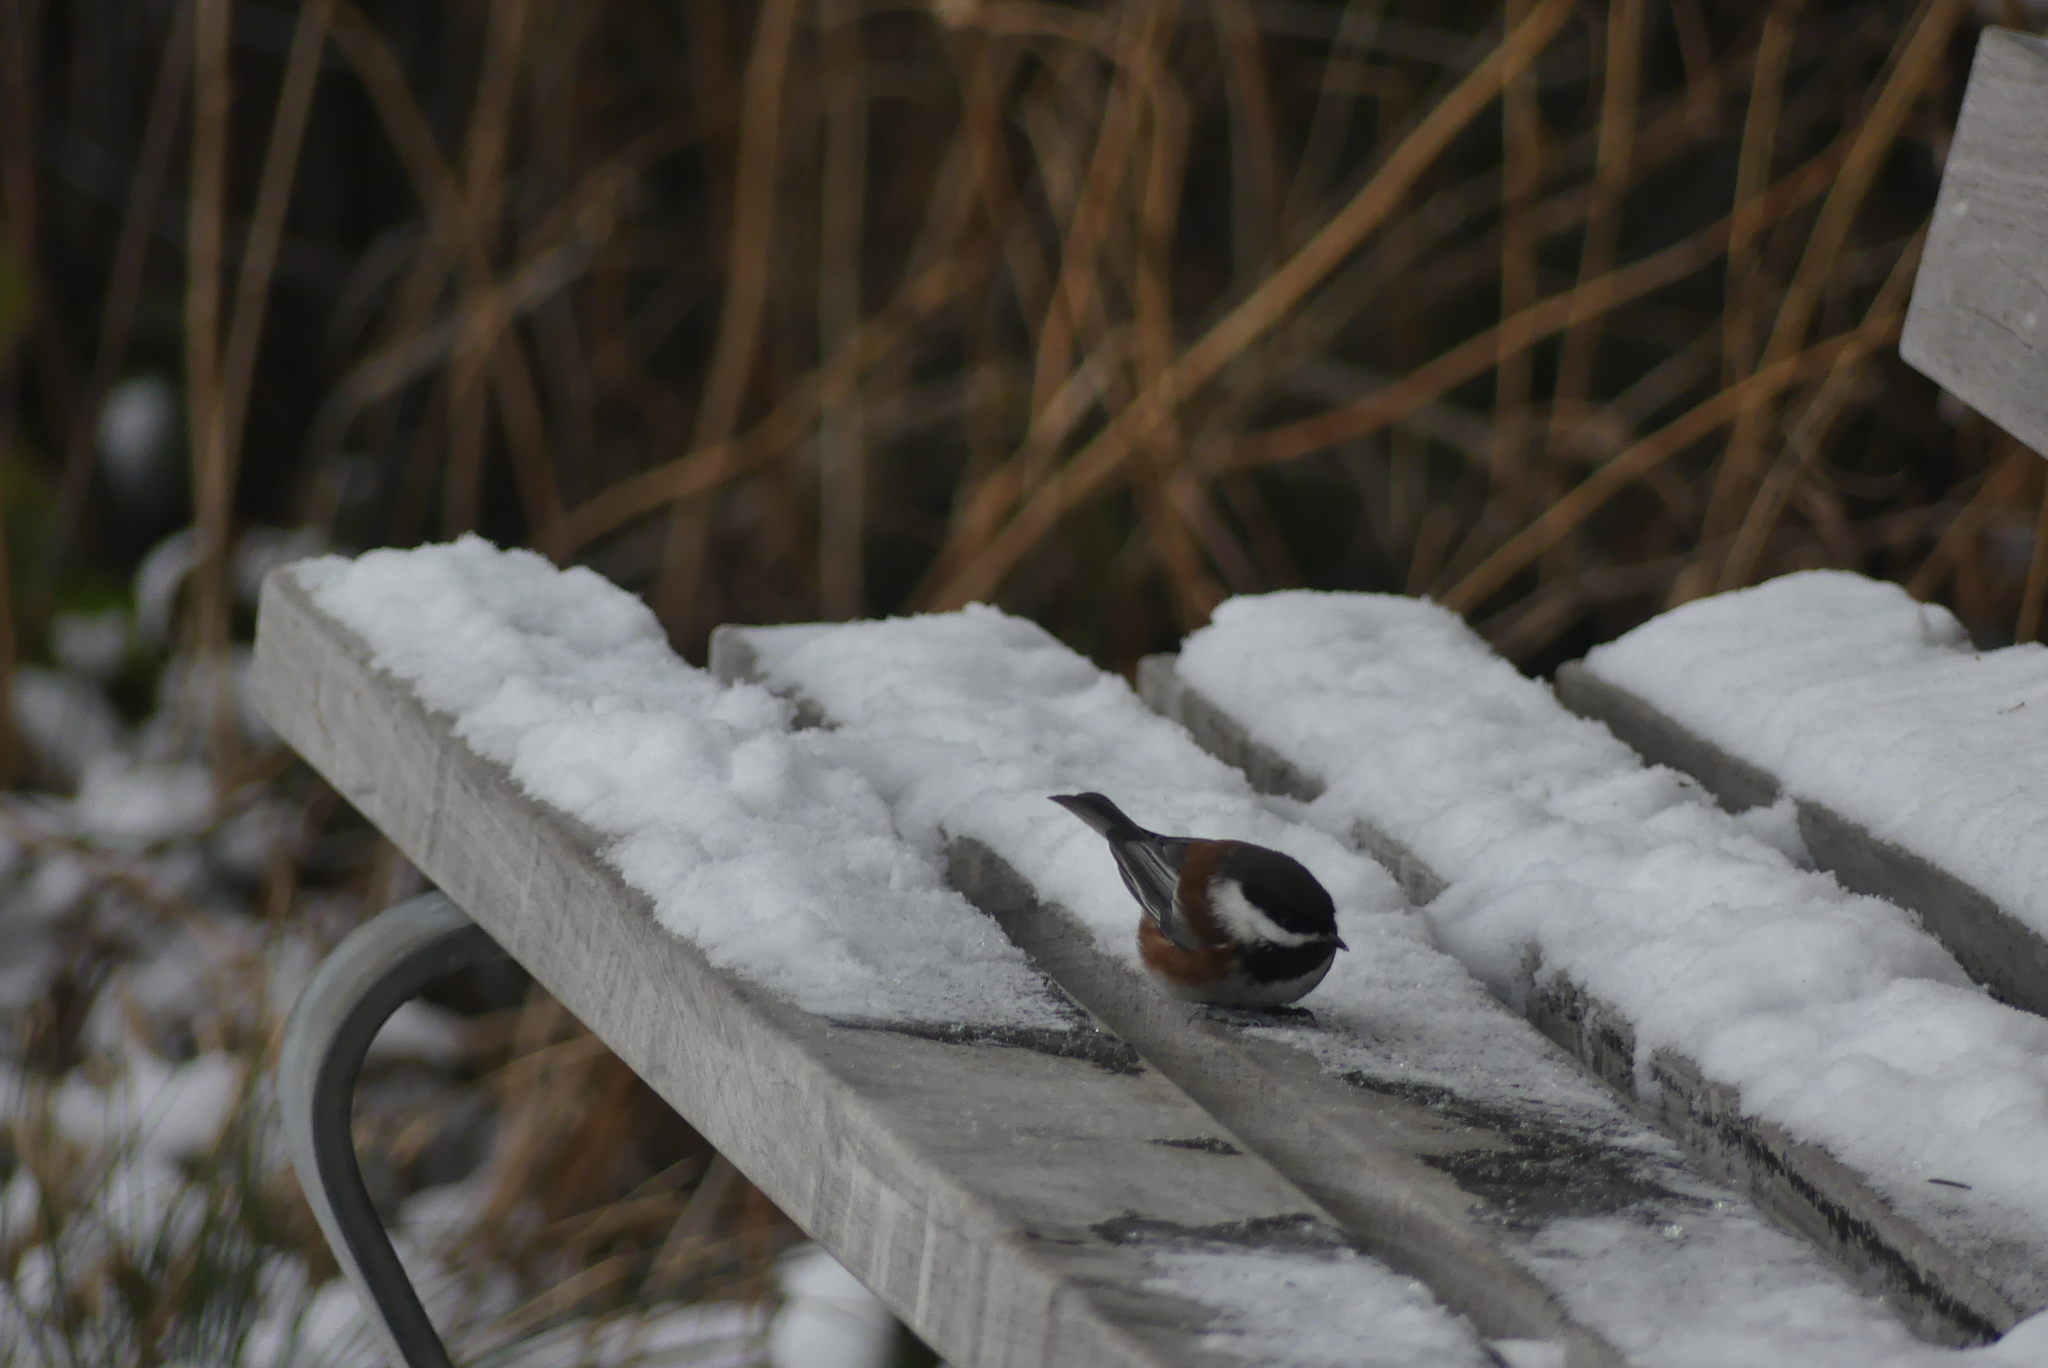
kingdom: Animalia
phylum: Chordata
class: Aves
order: Passeriformes
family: Paridae
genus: Poecile
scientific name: Poecile rufescens
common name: Chestnut-backed chickadee
